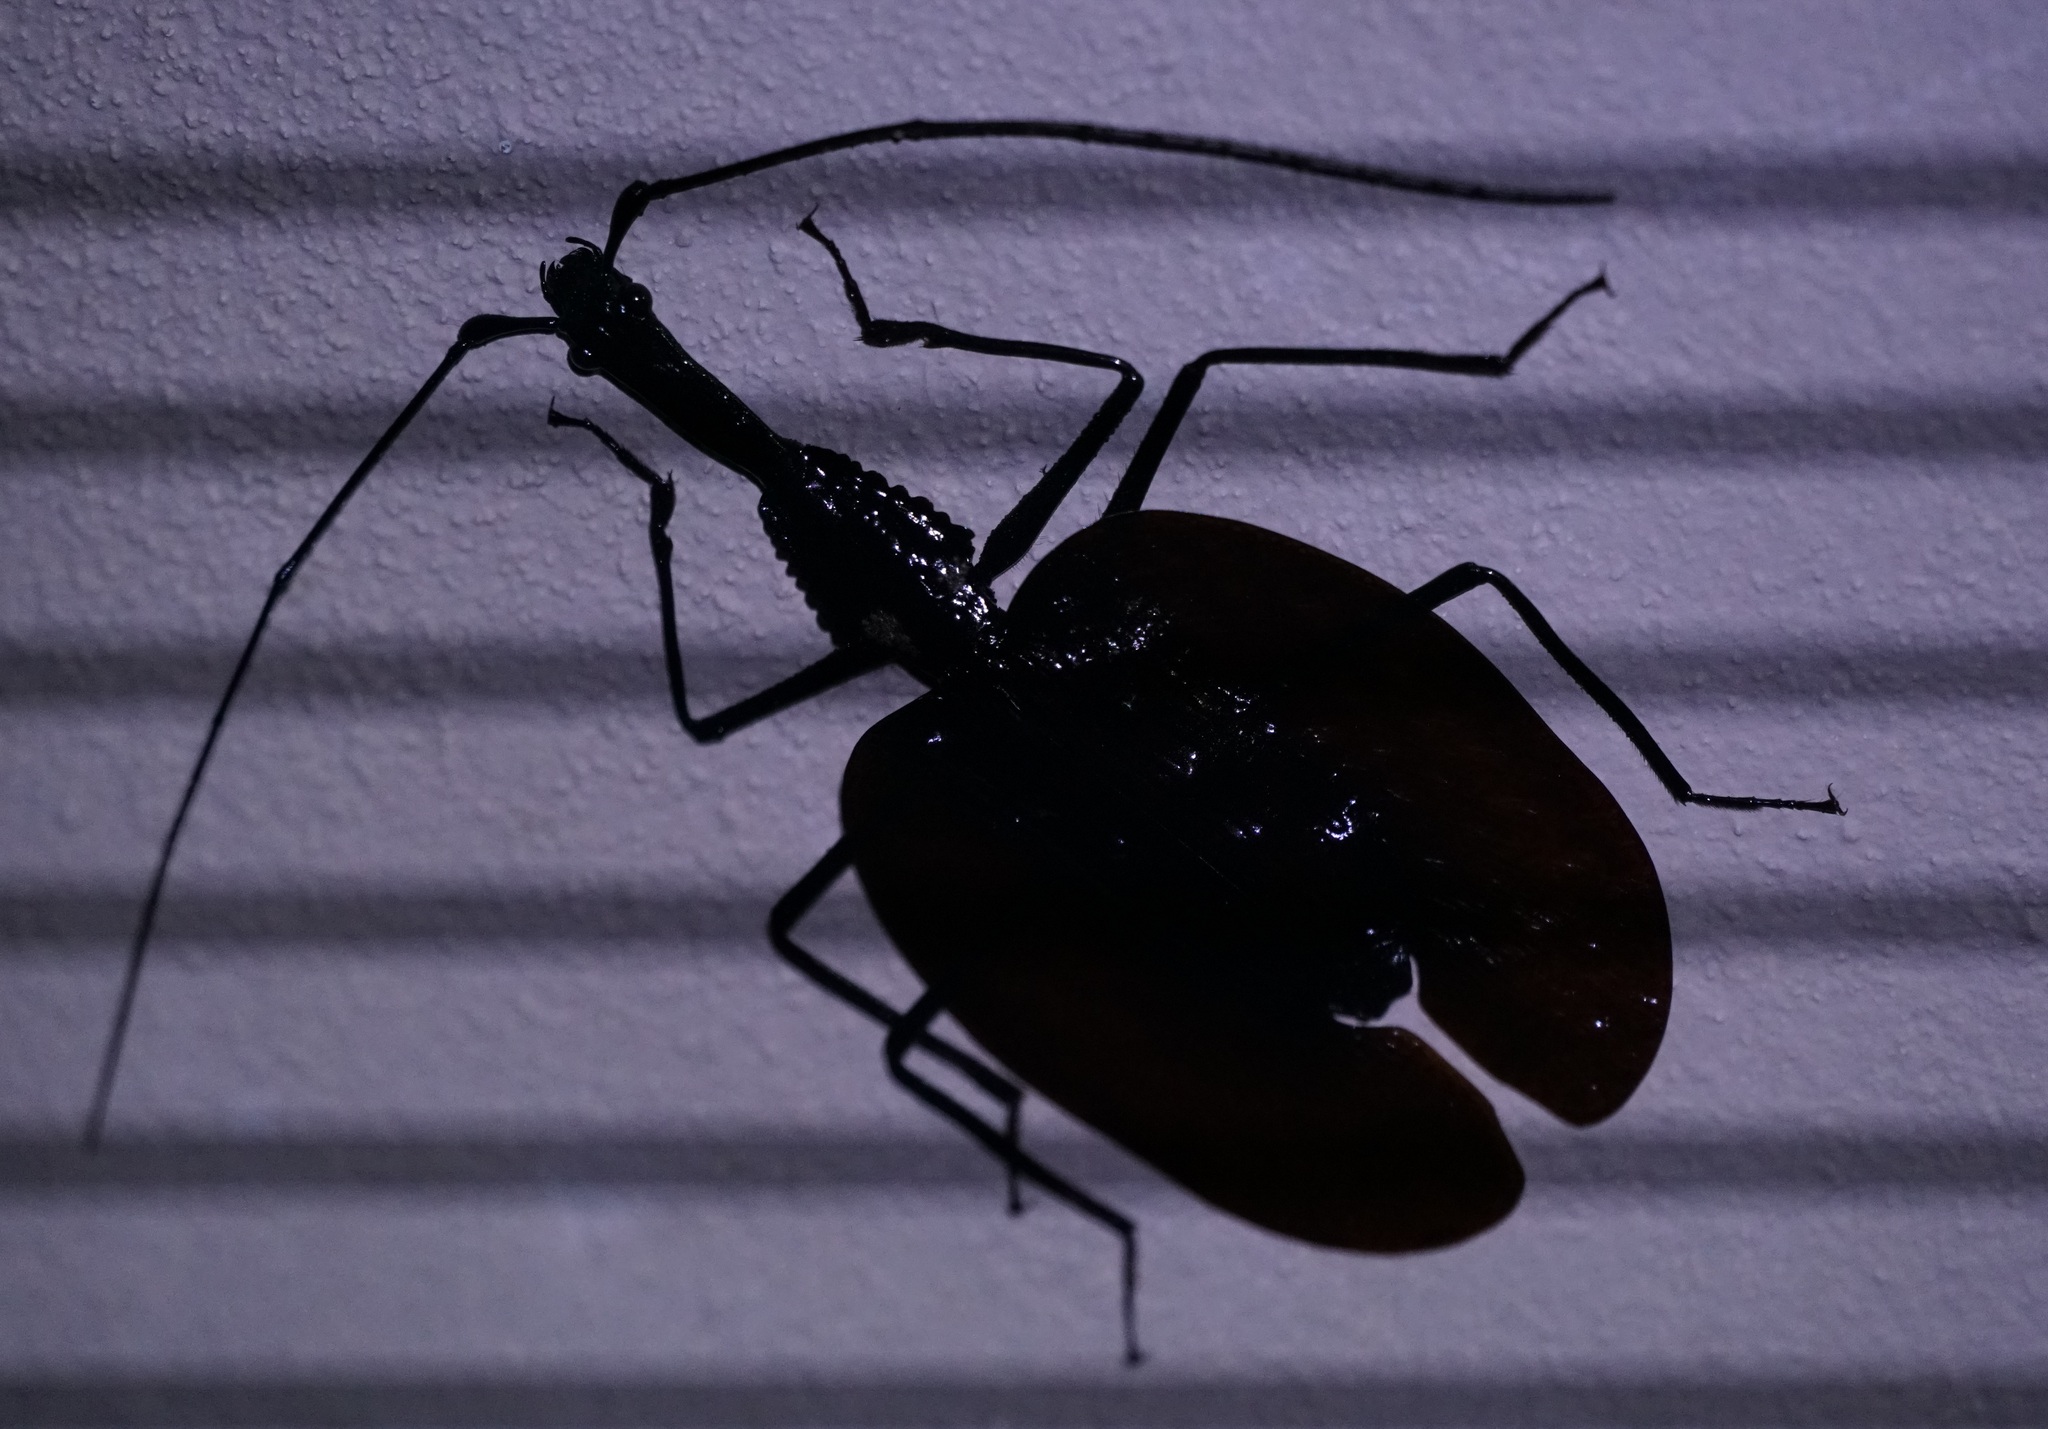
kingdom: Animalia
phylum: Arthropoda
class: Insecta
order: Coleoptera
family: Carabidae
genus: Mormolyce
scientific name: Mormolyce borneensis
